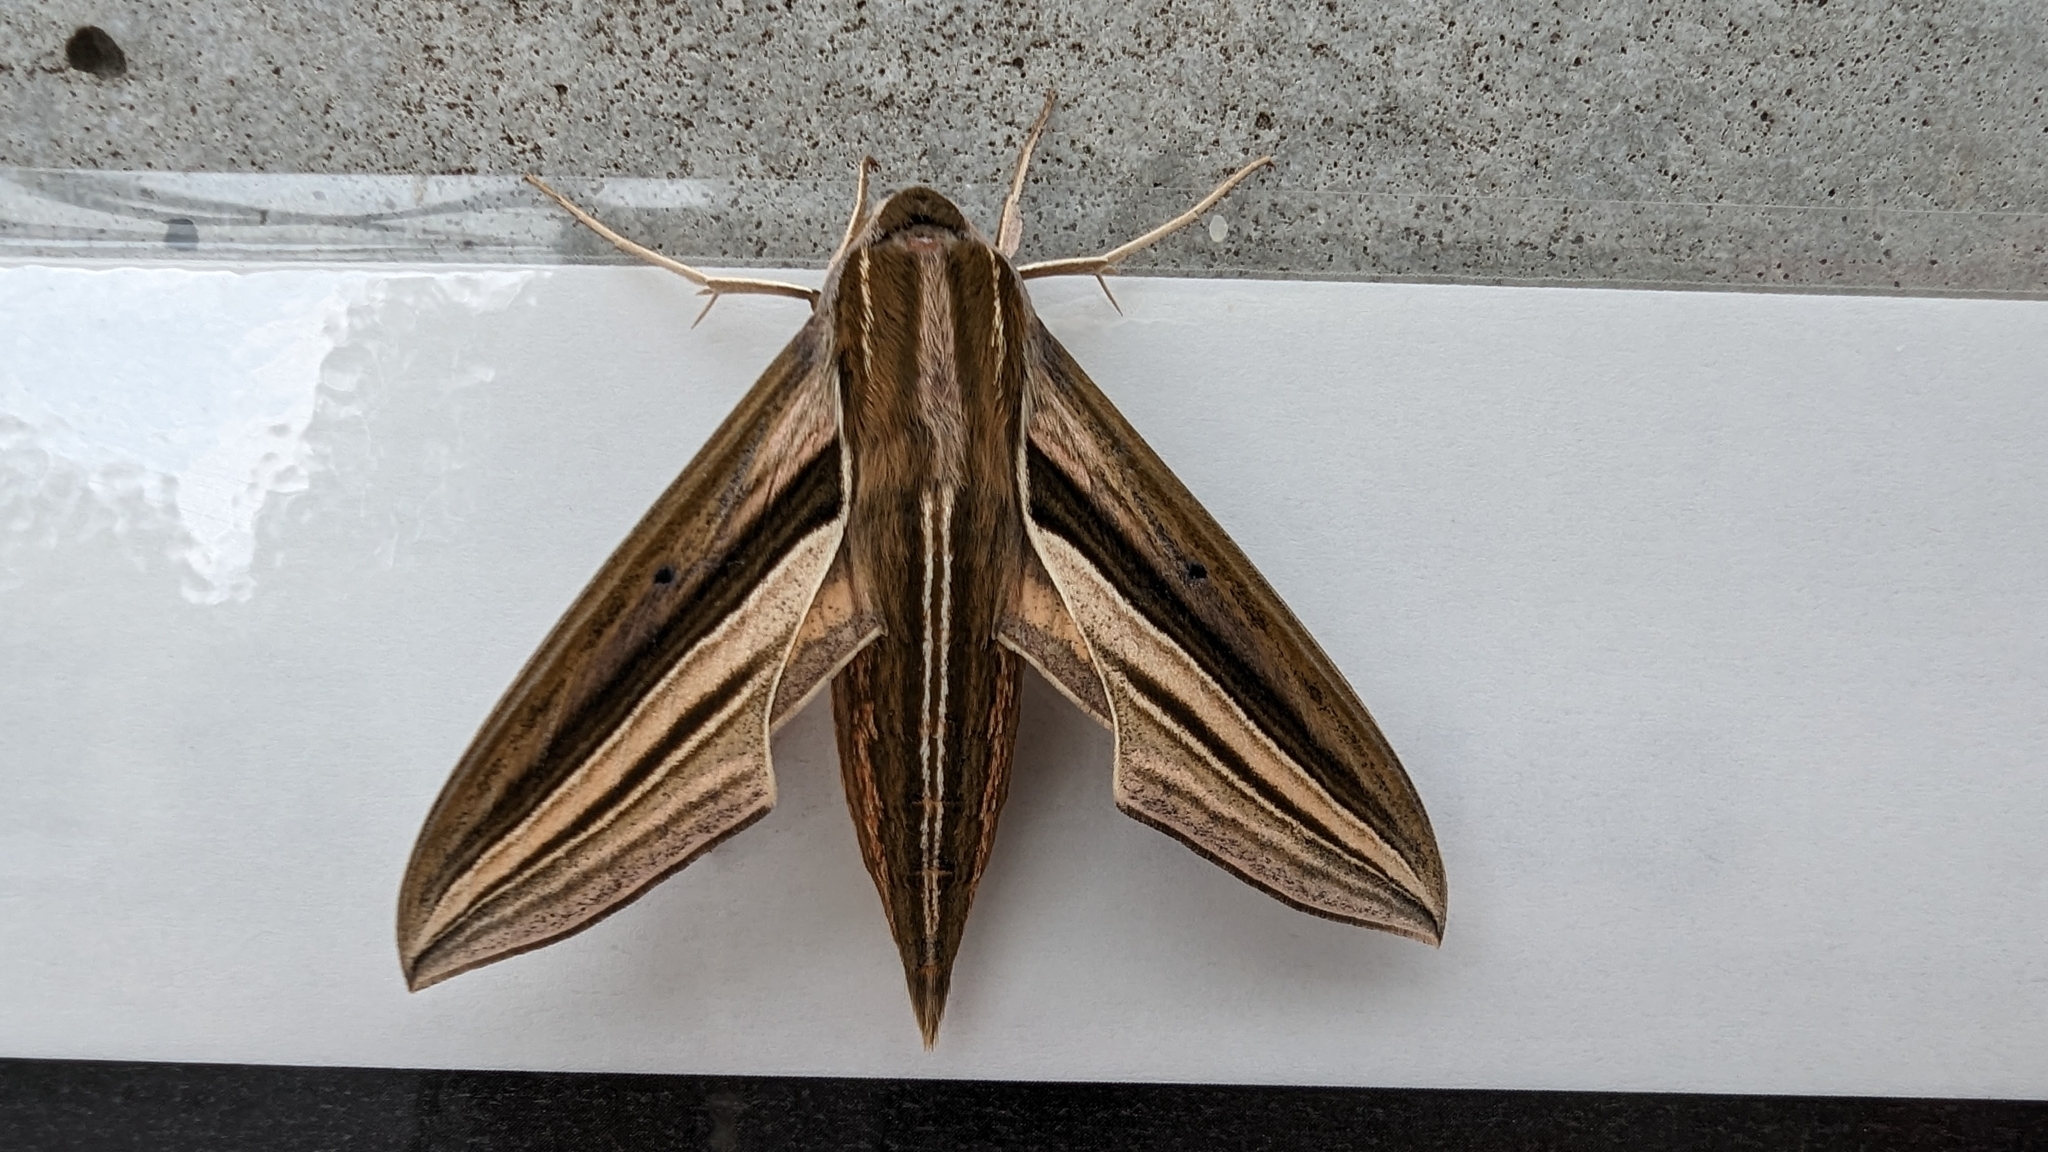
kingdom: Animalia
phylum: Arthropoda
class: Insecta
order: Lepidoptera
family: Sphingidae
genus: Theretra
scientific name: Theretra oldenlandiae
